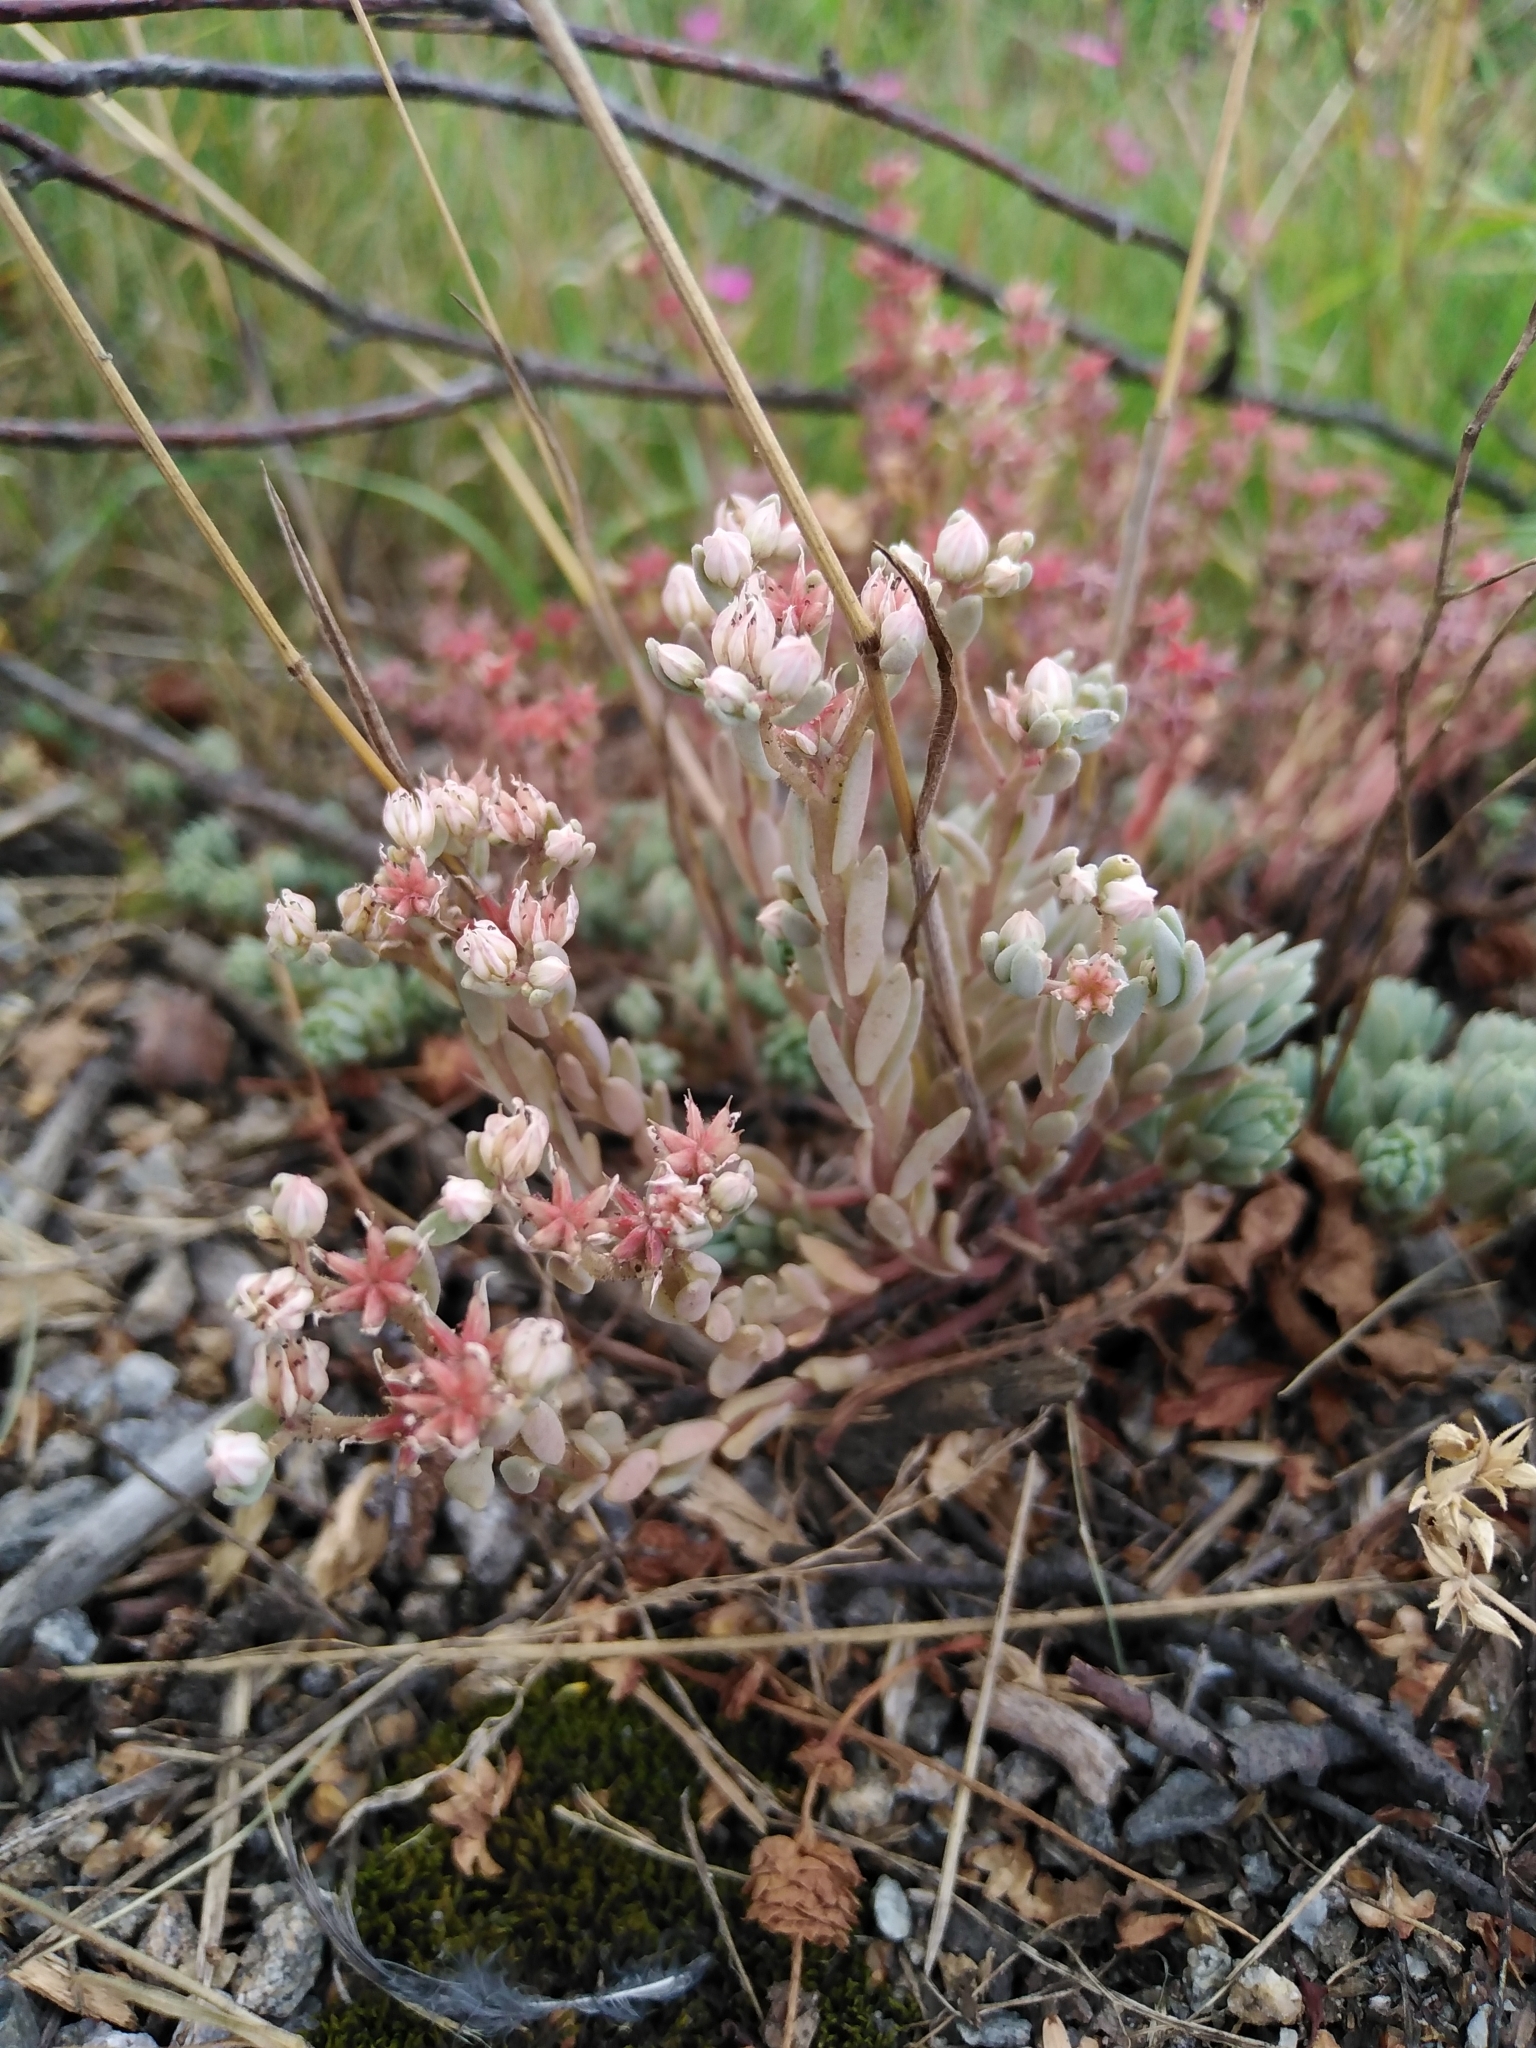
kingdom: Plantae
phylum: Tracheophyta
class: Magnoliopsida
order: Saxifragales
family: Crassulaceae
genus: Sedum
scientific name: Sedum hispanicum
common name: Spanish stonecrop
